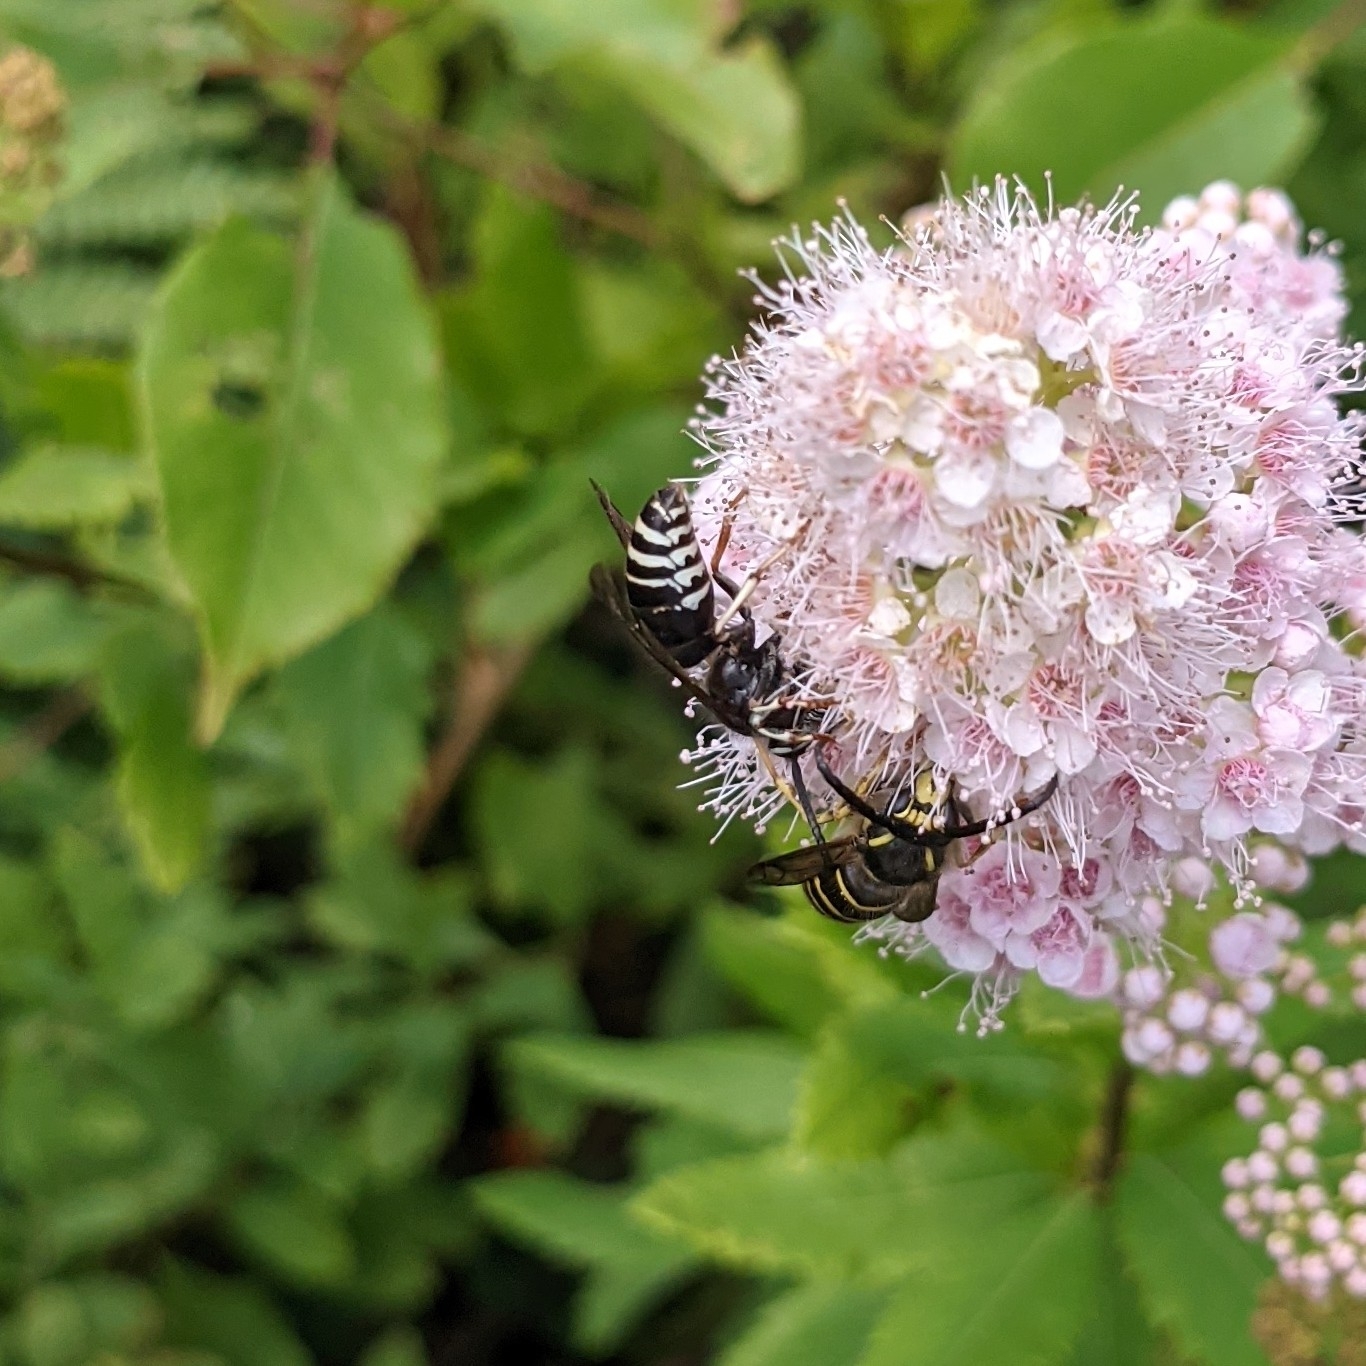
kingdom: Animalia
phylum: Arthropoda
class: Insecta
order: Hymenoptera
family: Vespidae
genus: Vespula
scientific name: Vespula consobrina
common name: Blackjacket
